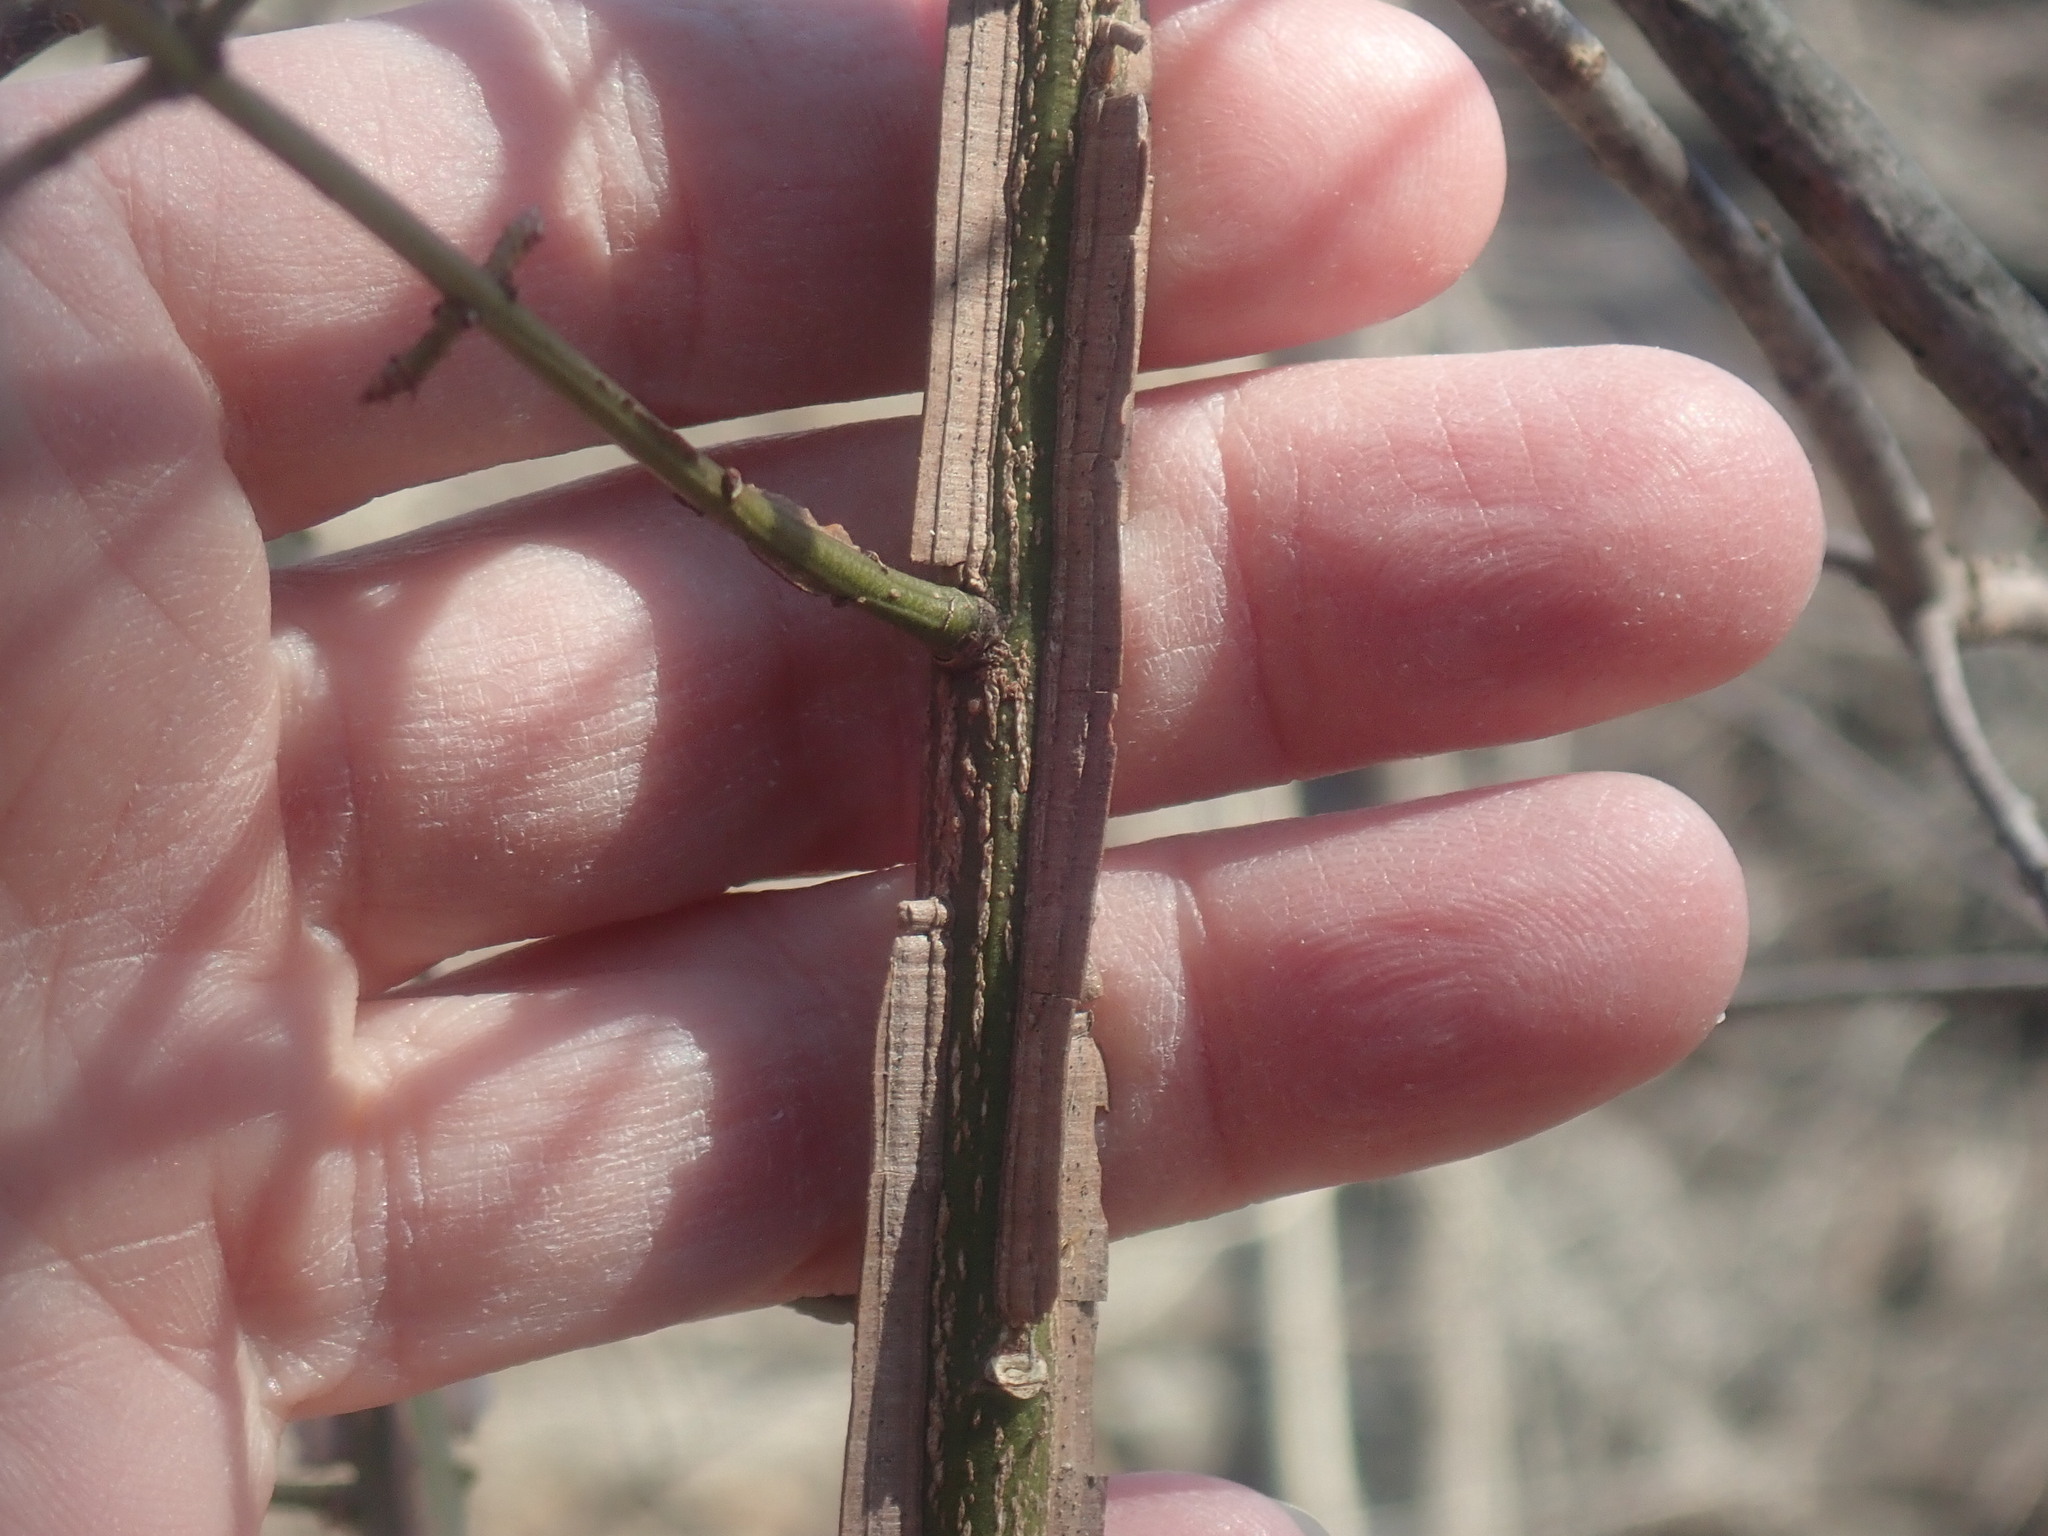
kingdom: Plantae
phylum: Tracheophyta
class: Magnoliopsida
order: Celastrales
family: Celastraceae
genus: Euonymus
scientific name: Euonymus alatus
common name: Winged euonymus
